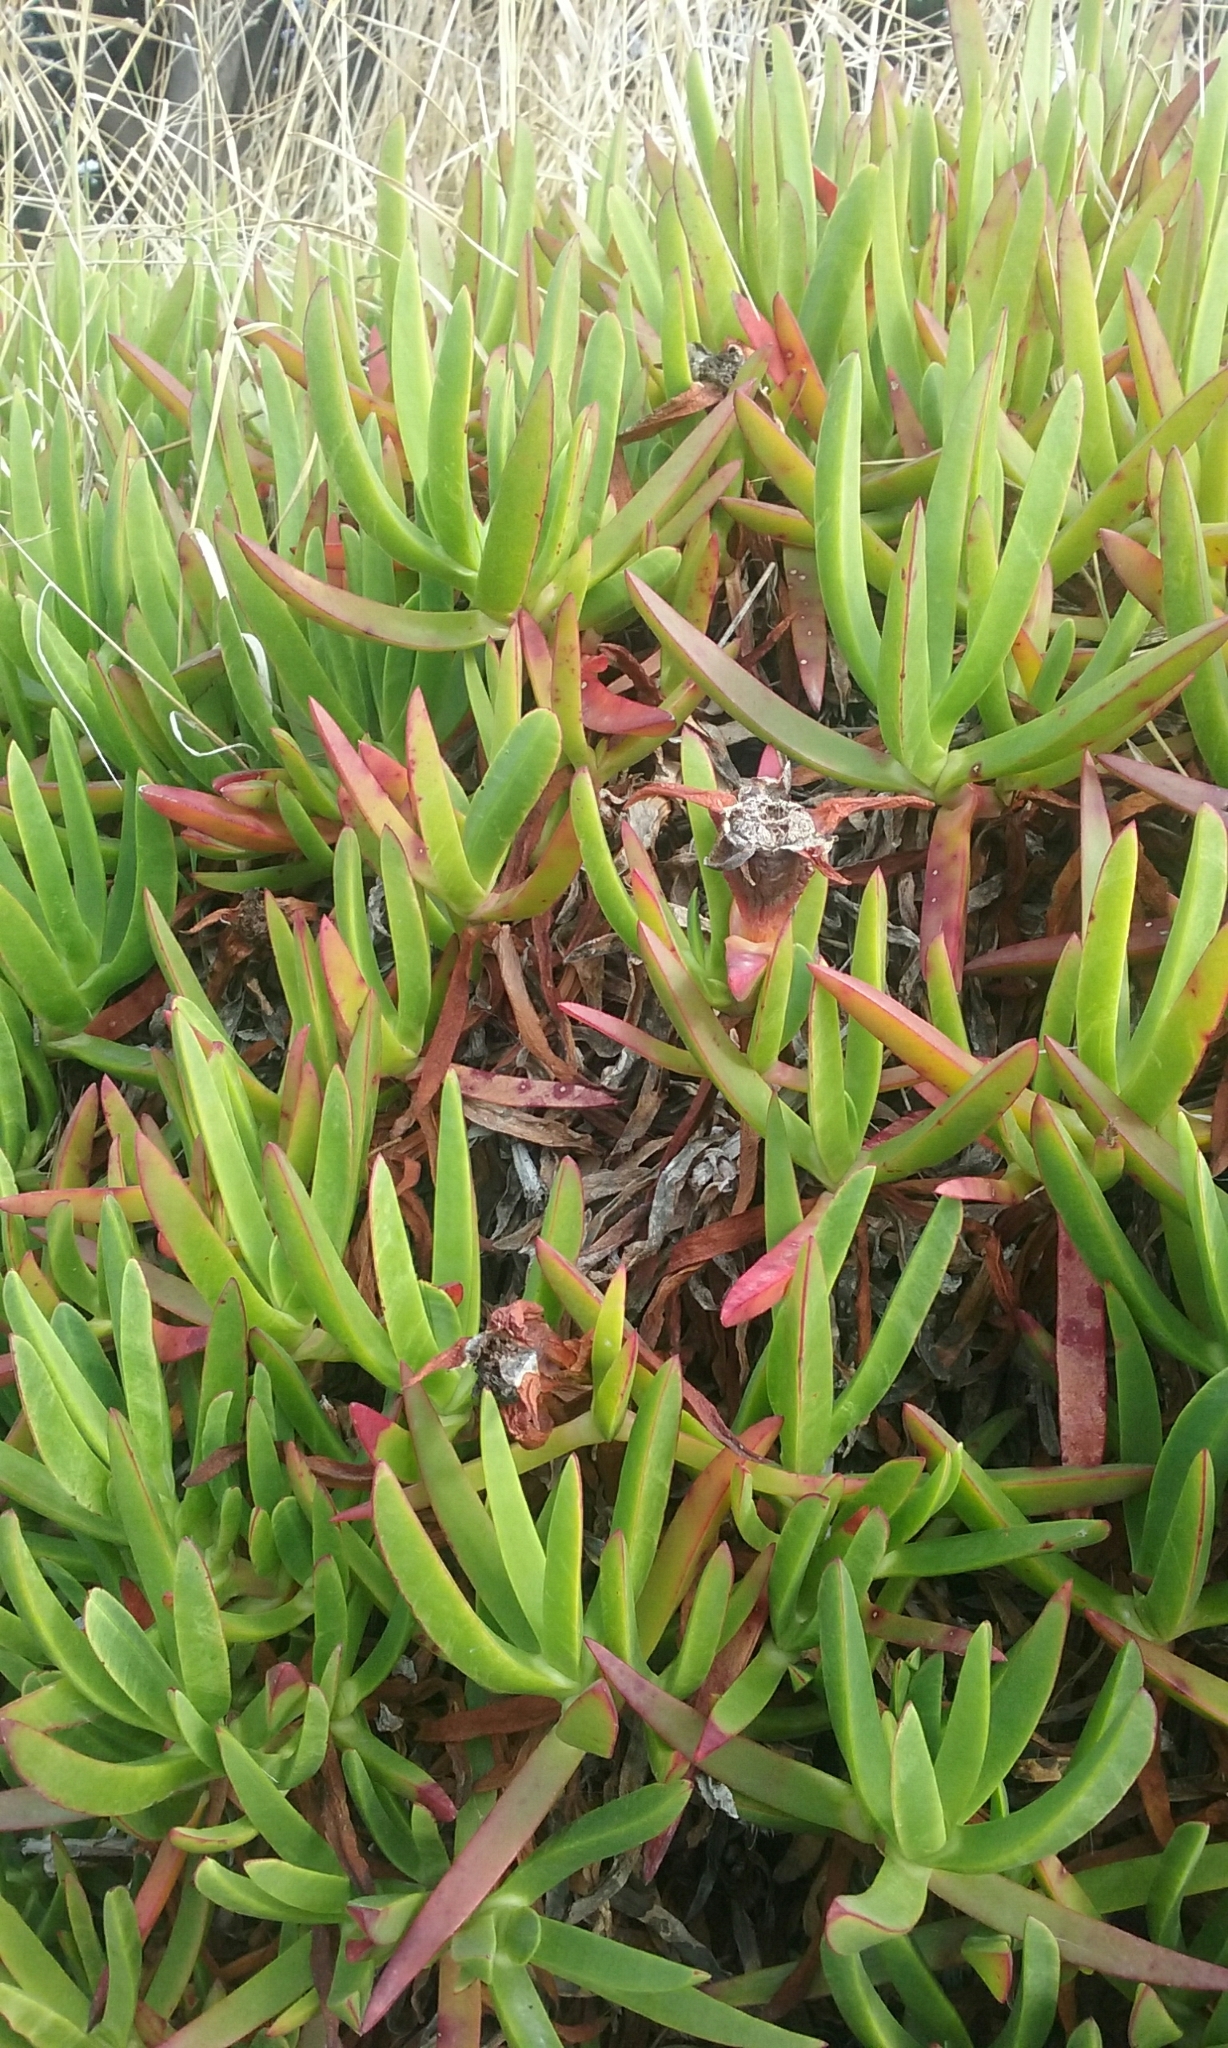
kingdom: Plantae
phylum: Tracheophyta
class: Magnoliopsida
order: Caryophyllales
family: Aizoaceae
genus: Carpobrotus
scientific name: Carpobrotus edulis
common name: Hottentot-fig
